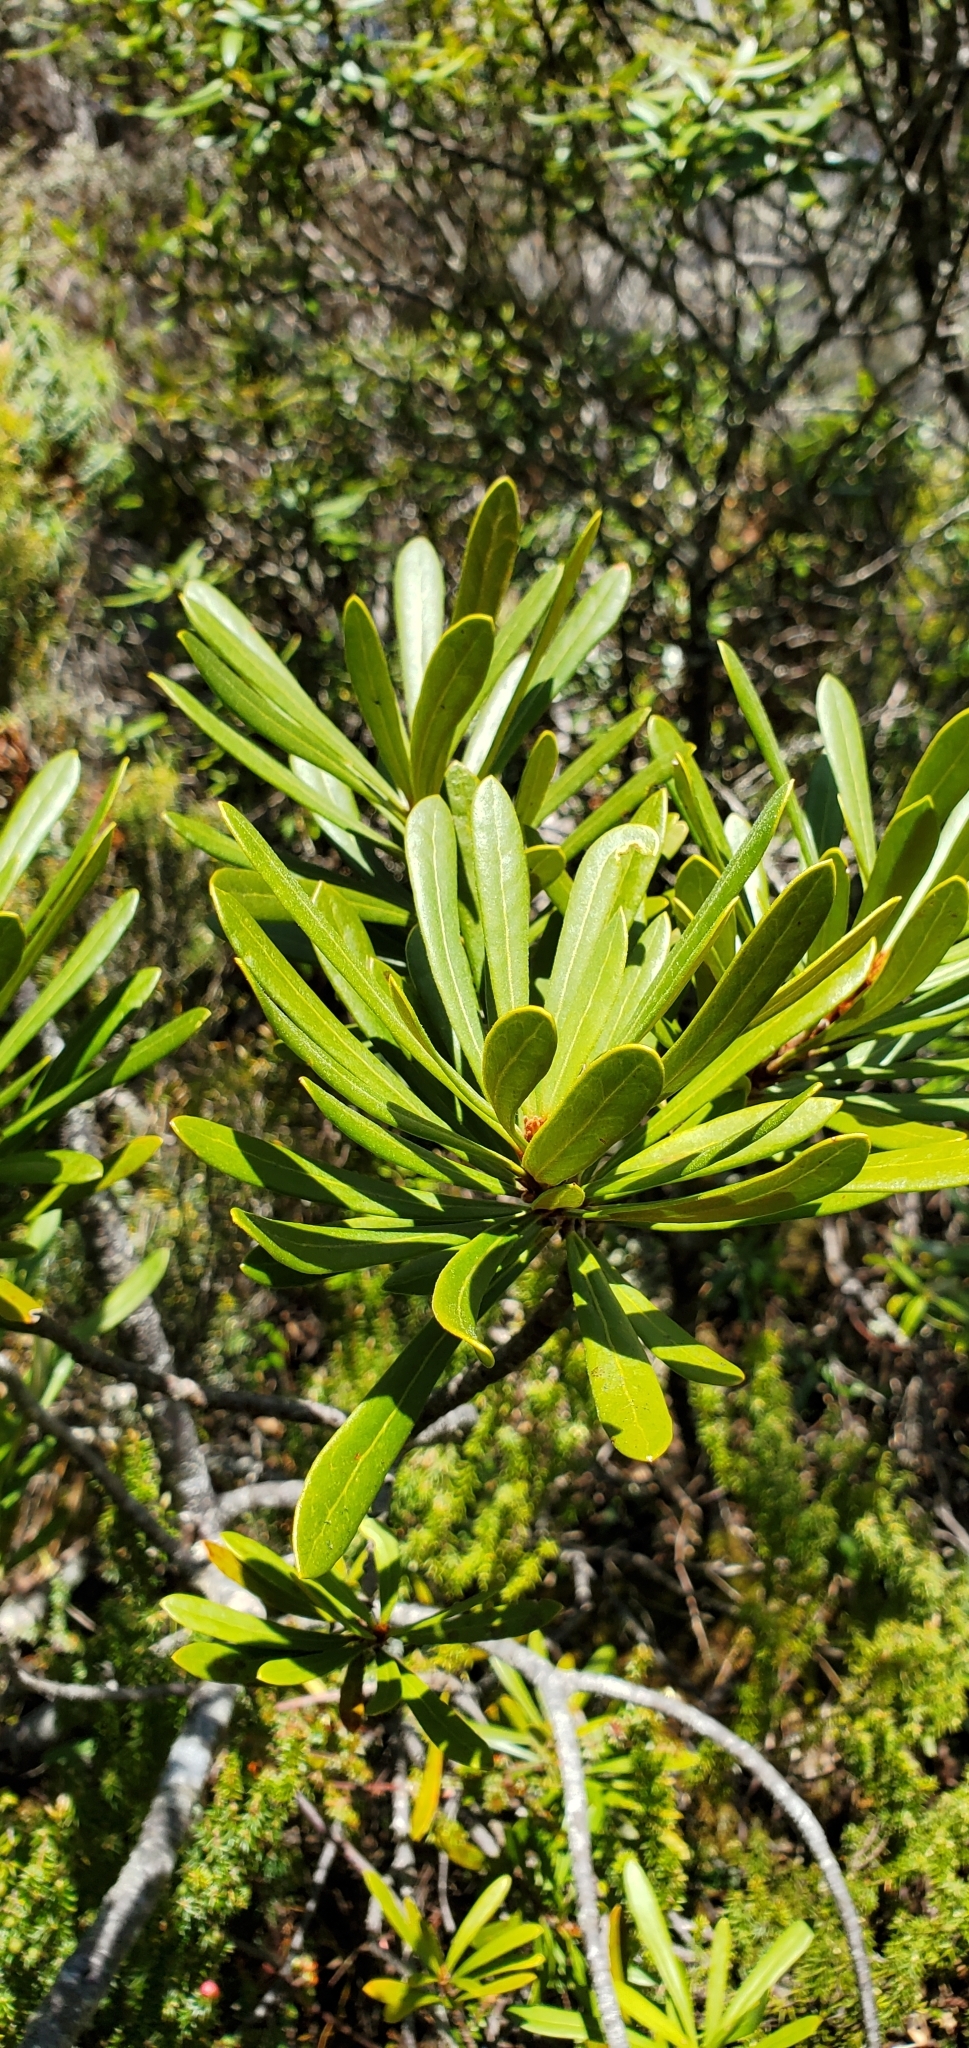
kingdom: Plantae
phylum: Tracheophyta
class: Magnoliopsida
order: Proteales
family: Proteaceae
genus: Telopea
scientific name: Telopea truncata
